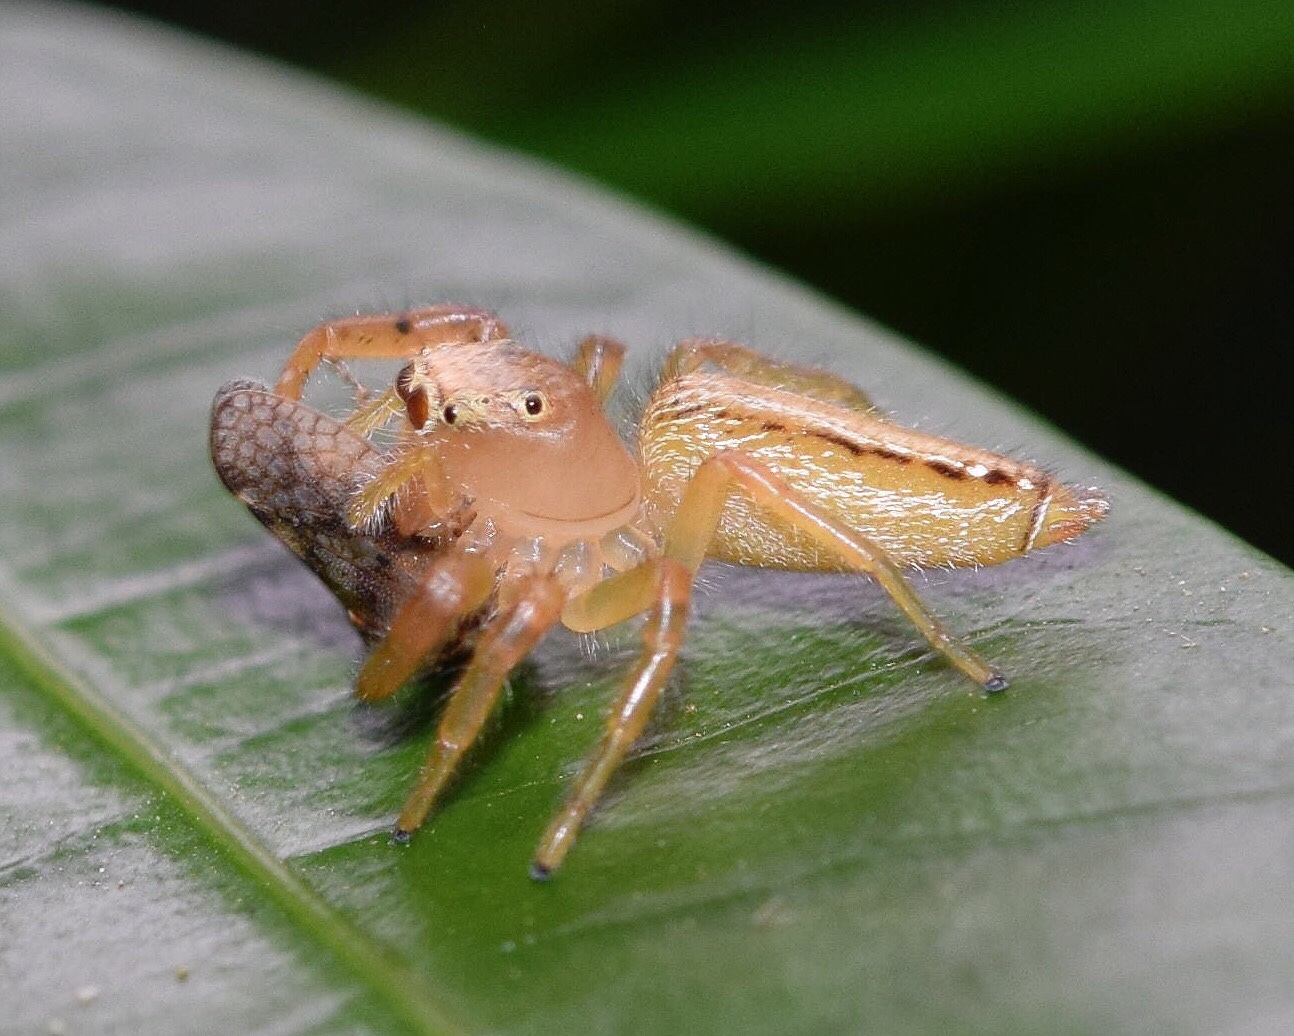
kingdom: Animalia
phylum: Arthropoda
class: Arachnida
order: Araneae
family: Salticidae
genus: Thyene
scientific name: Thyene ogdeni
